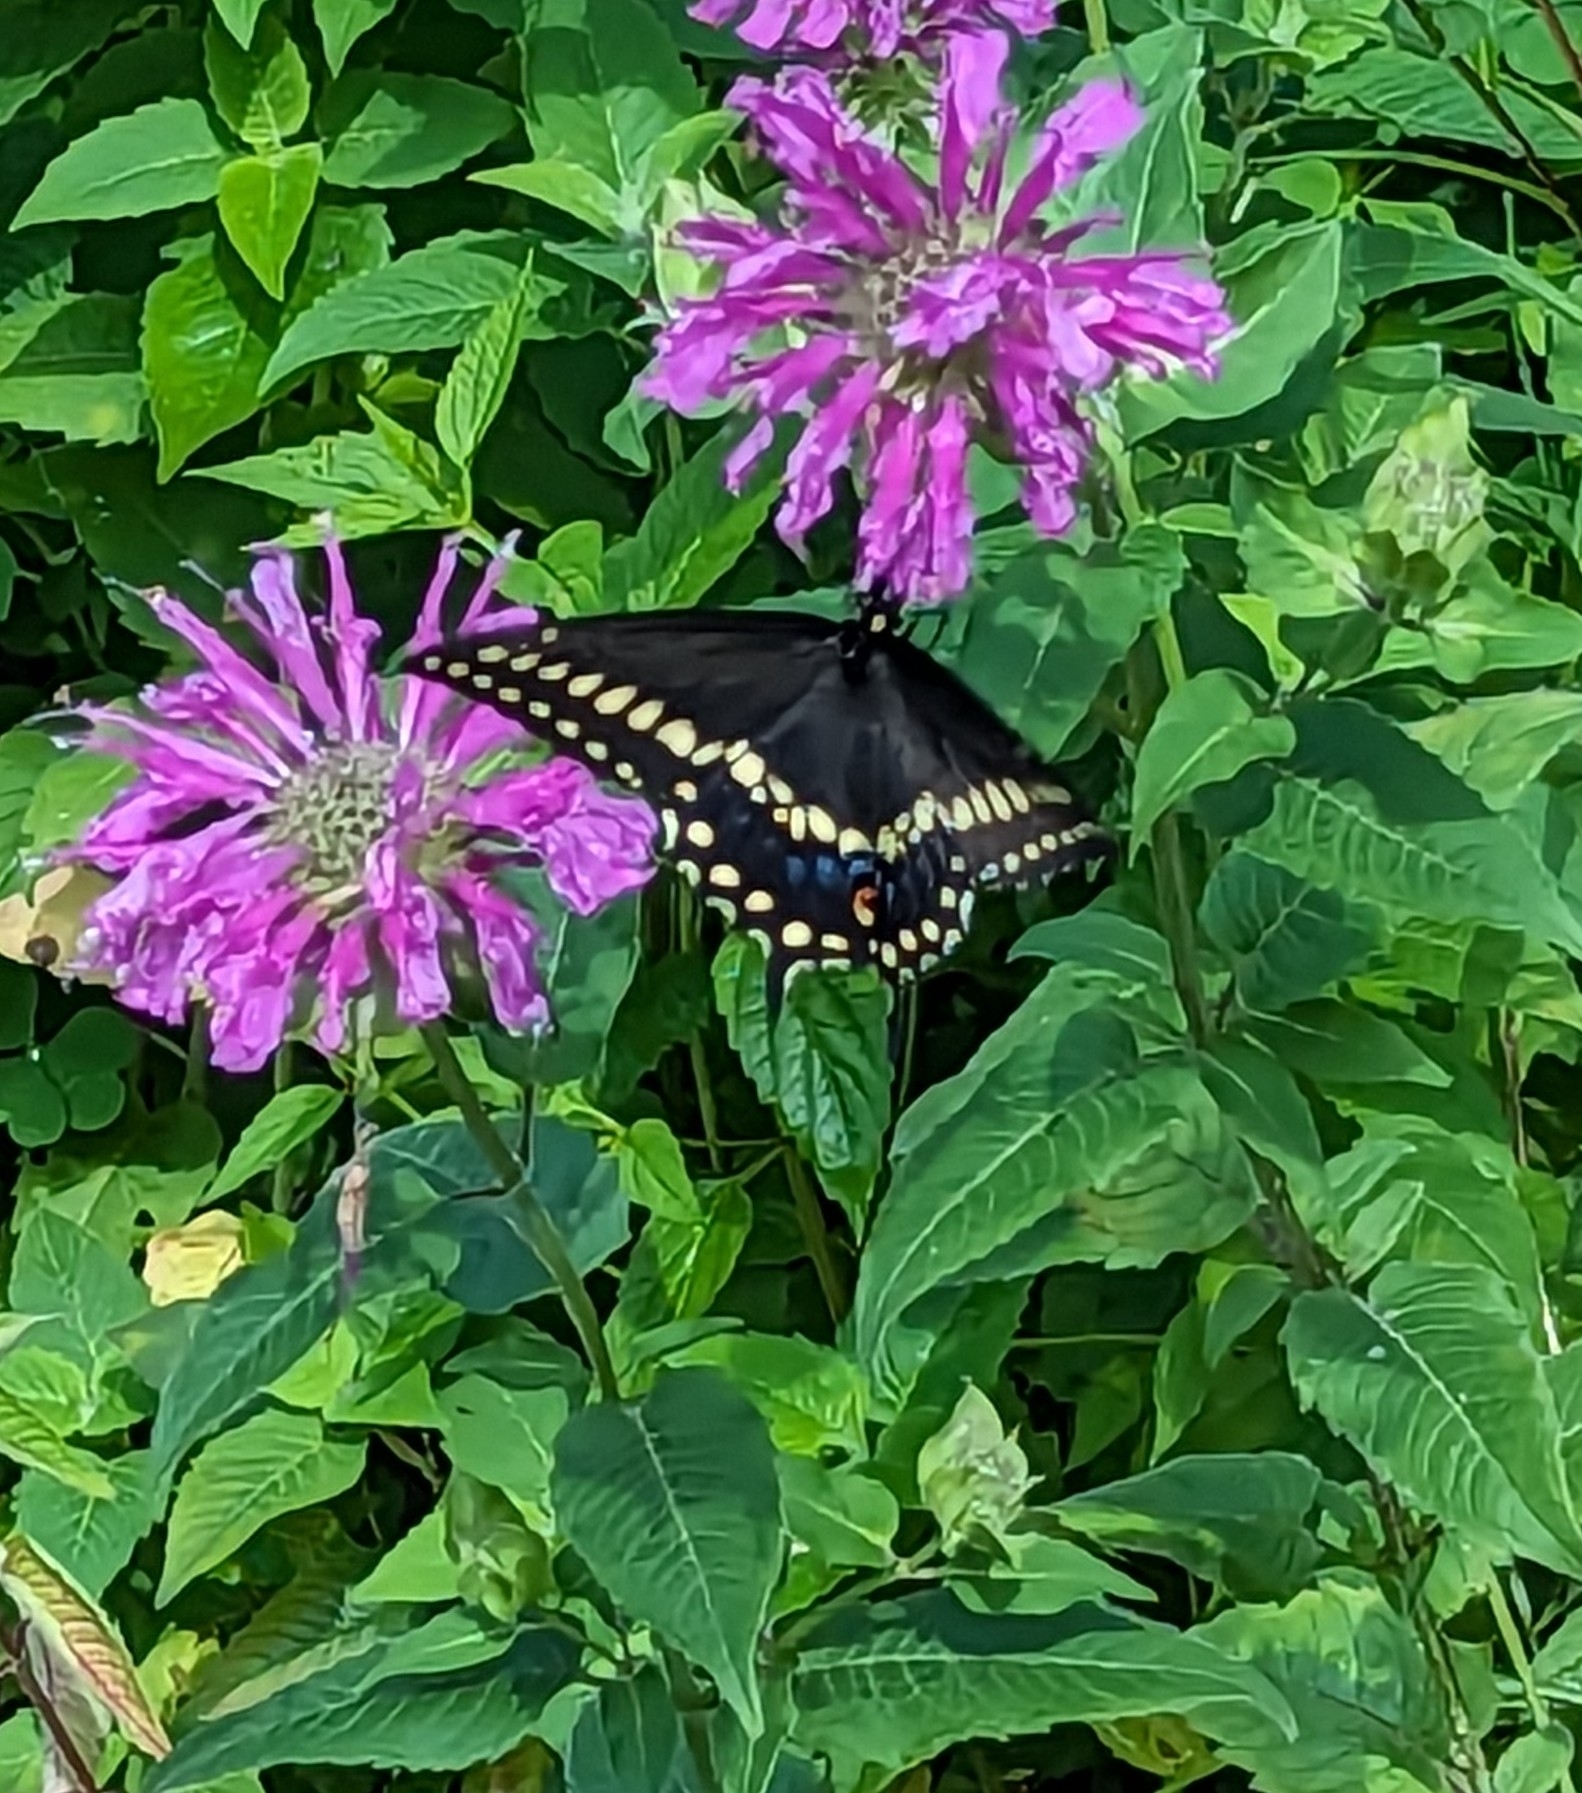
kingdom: Animalia
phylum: Arthropoda
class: Insecta
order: Lepidoptera
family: Papilionidae
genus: Papilio
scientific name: Papilio polyxenes
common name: Black swallowtail
